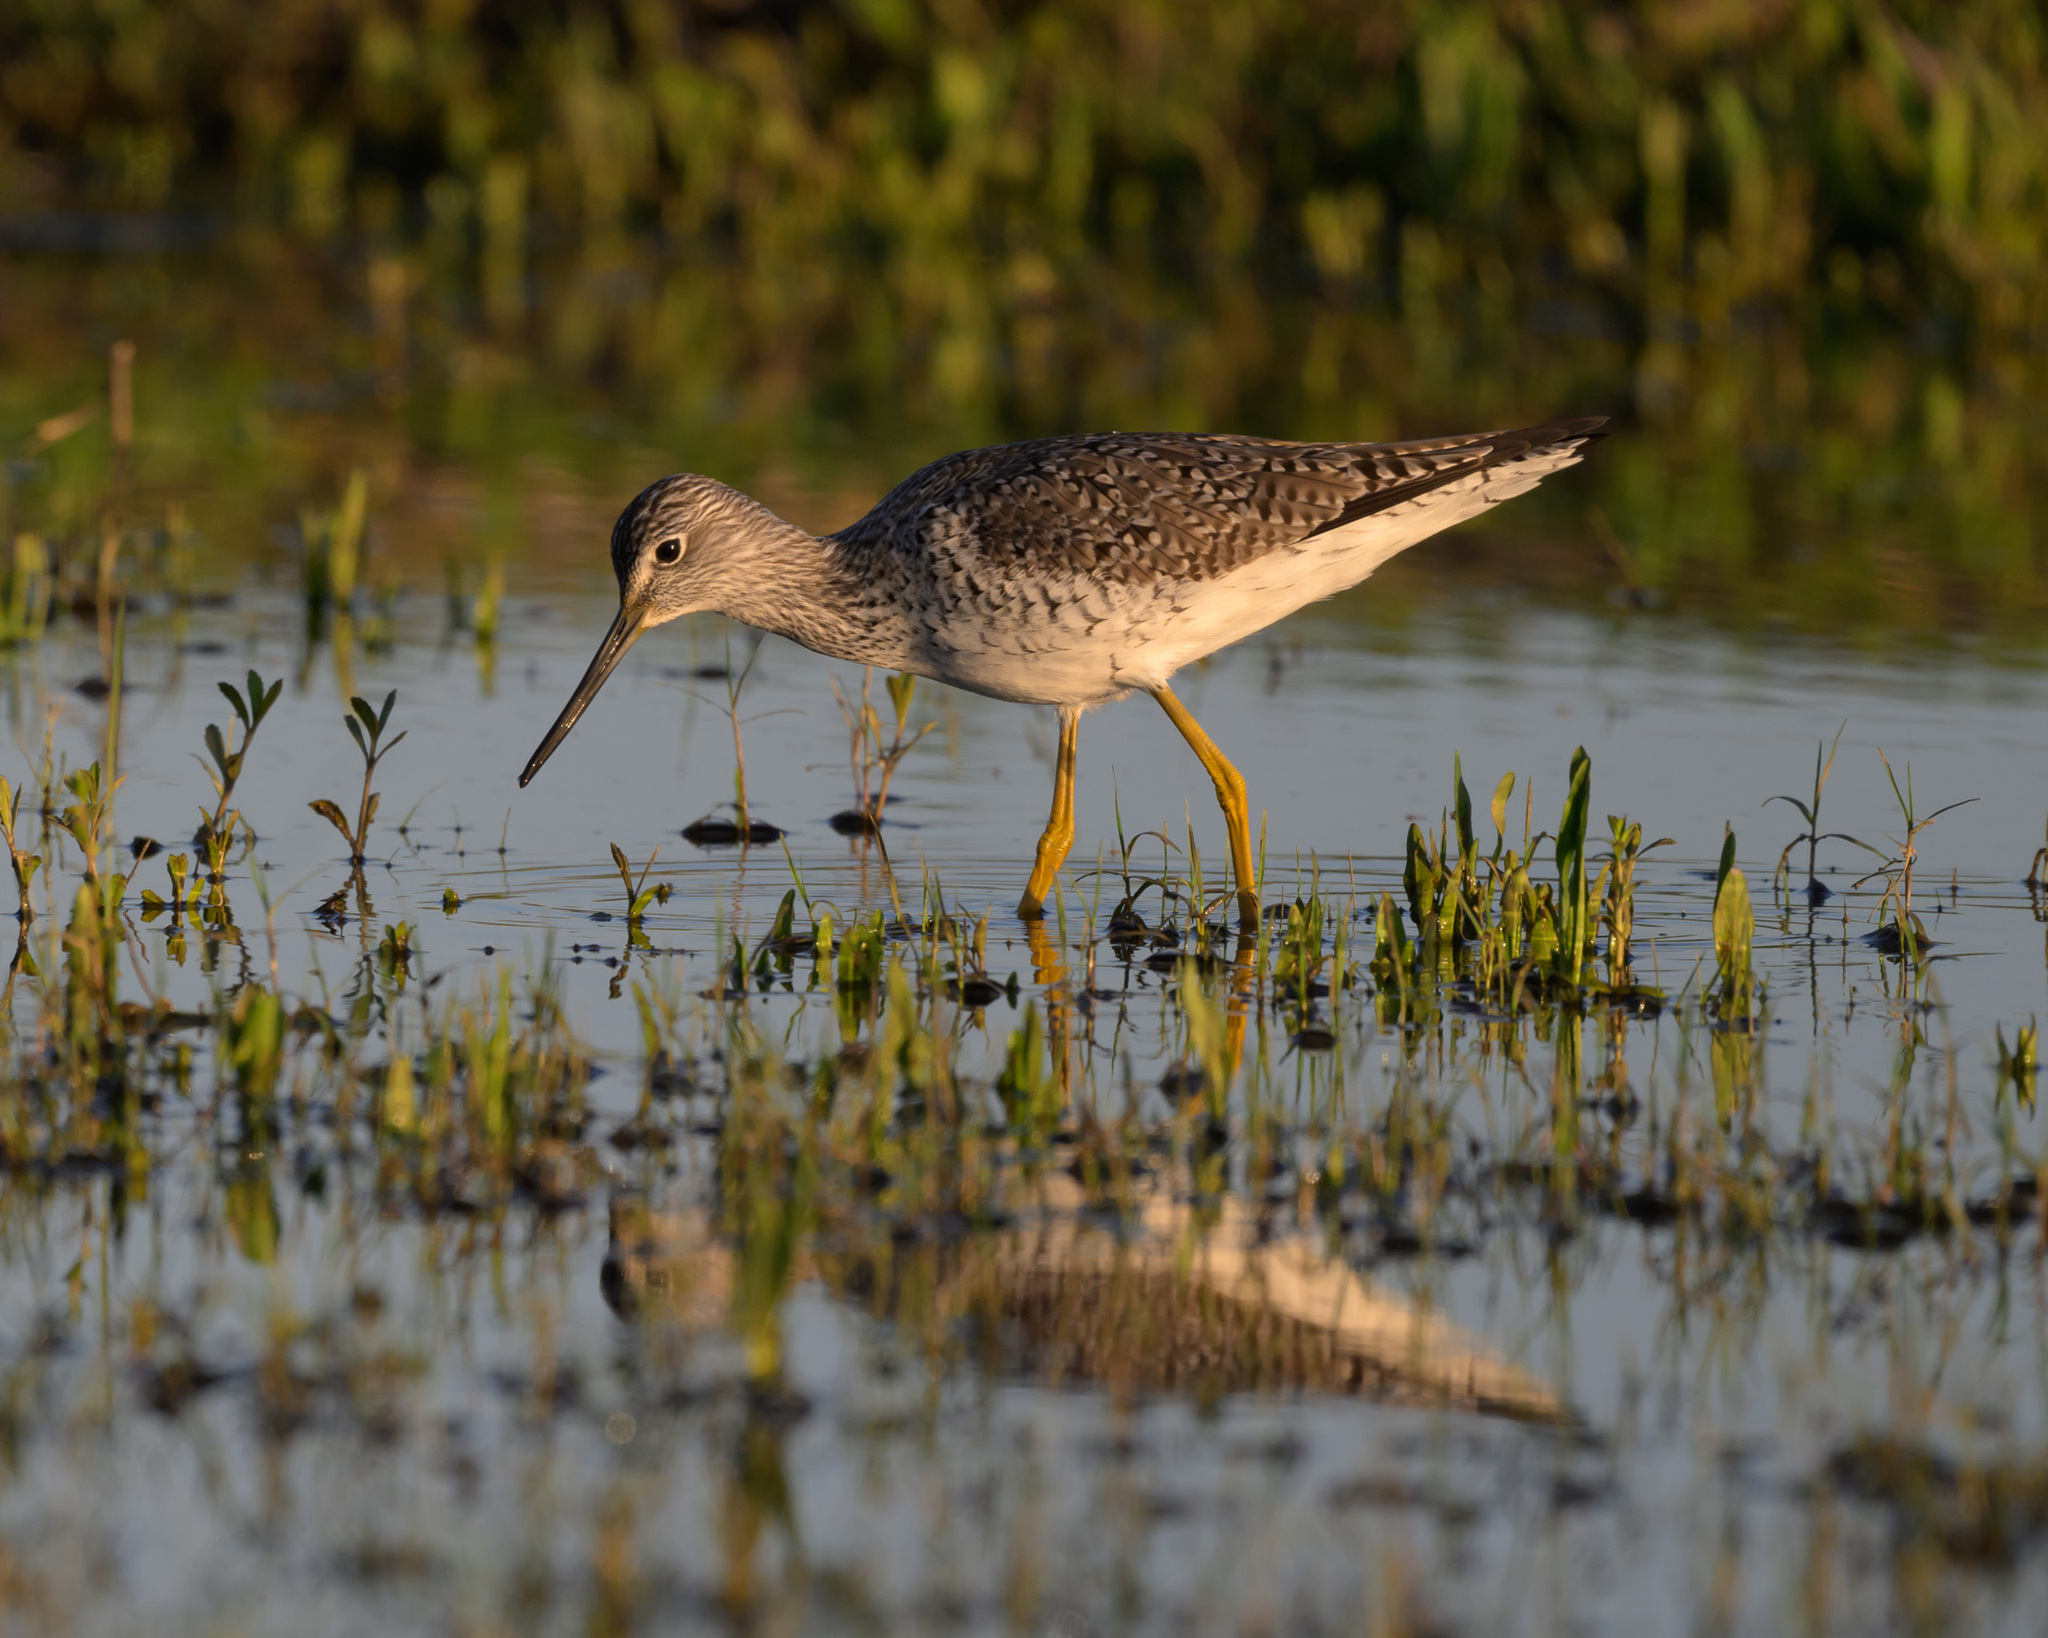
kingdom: Animalia
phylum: Chordata
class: Aves
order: Charadriiformes
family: Scolopacidae
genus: Tringa
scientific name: Tringa melanoleuca
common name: Greater yellowlegs
